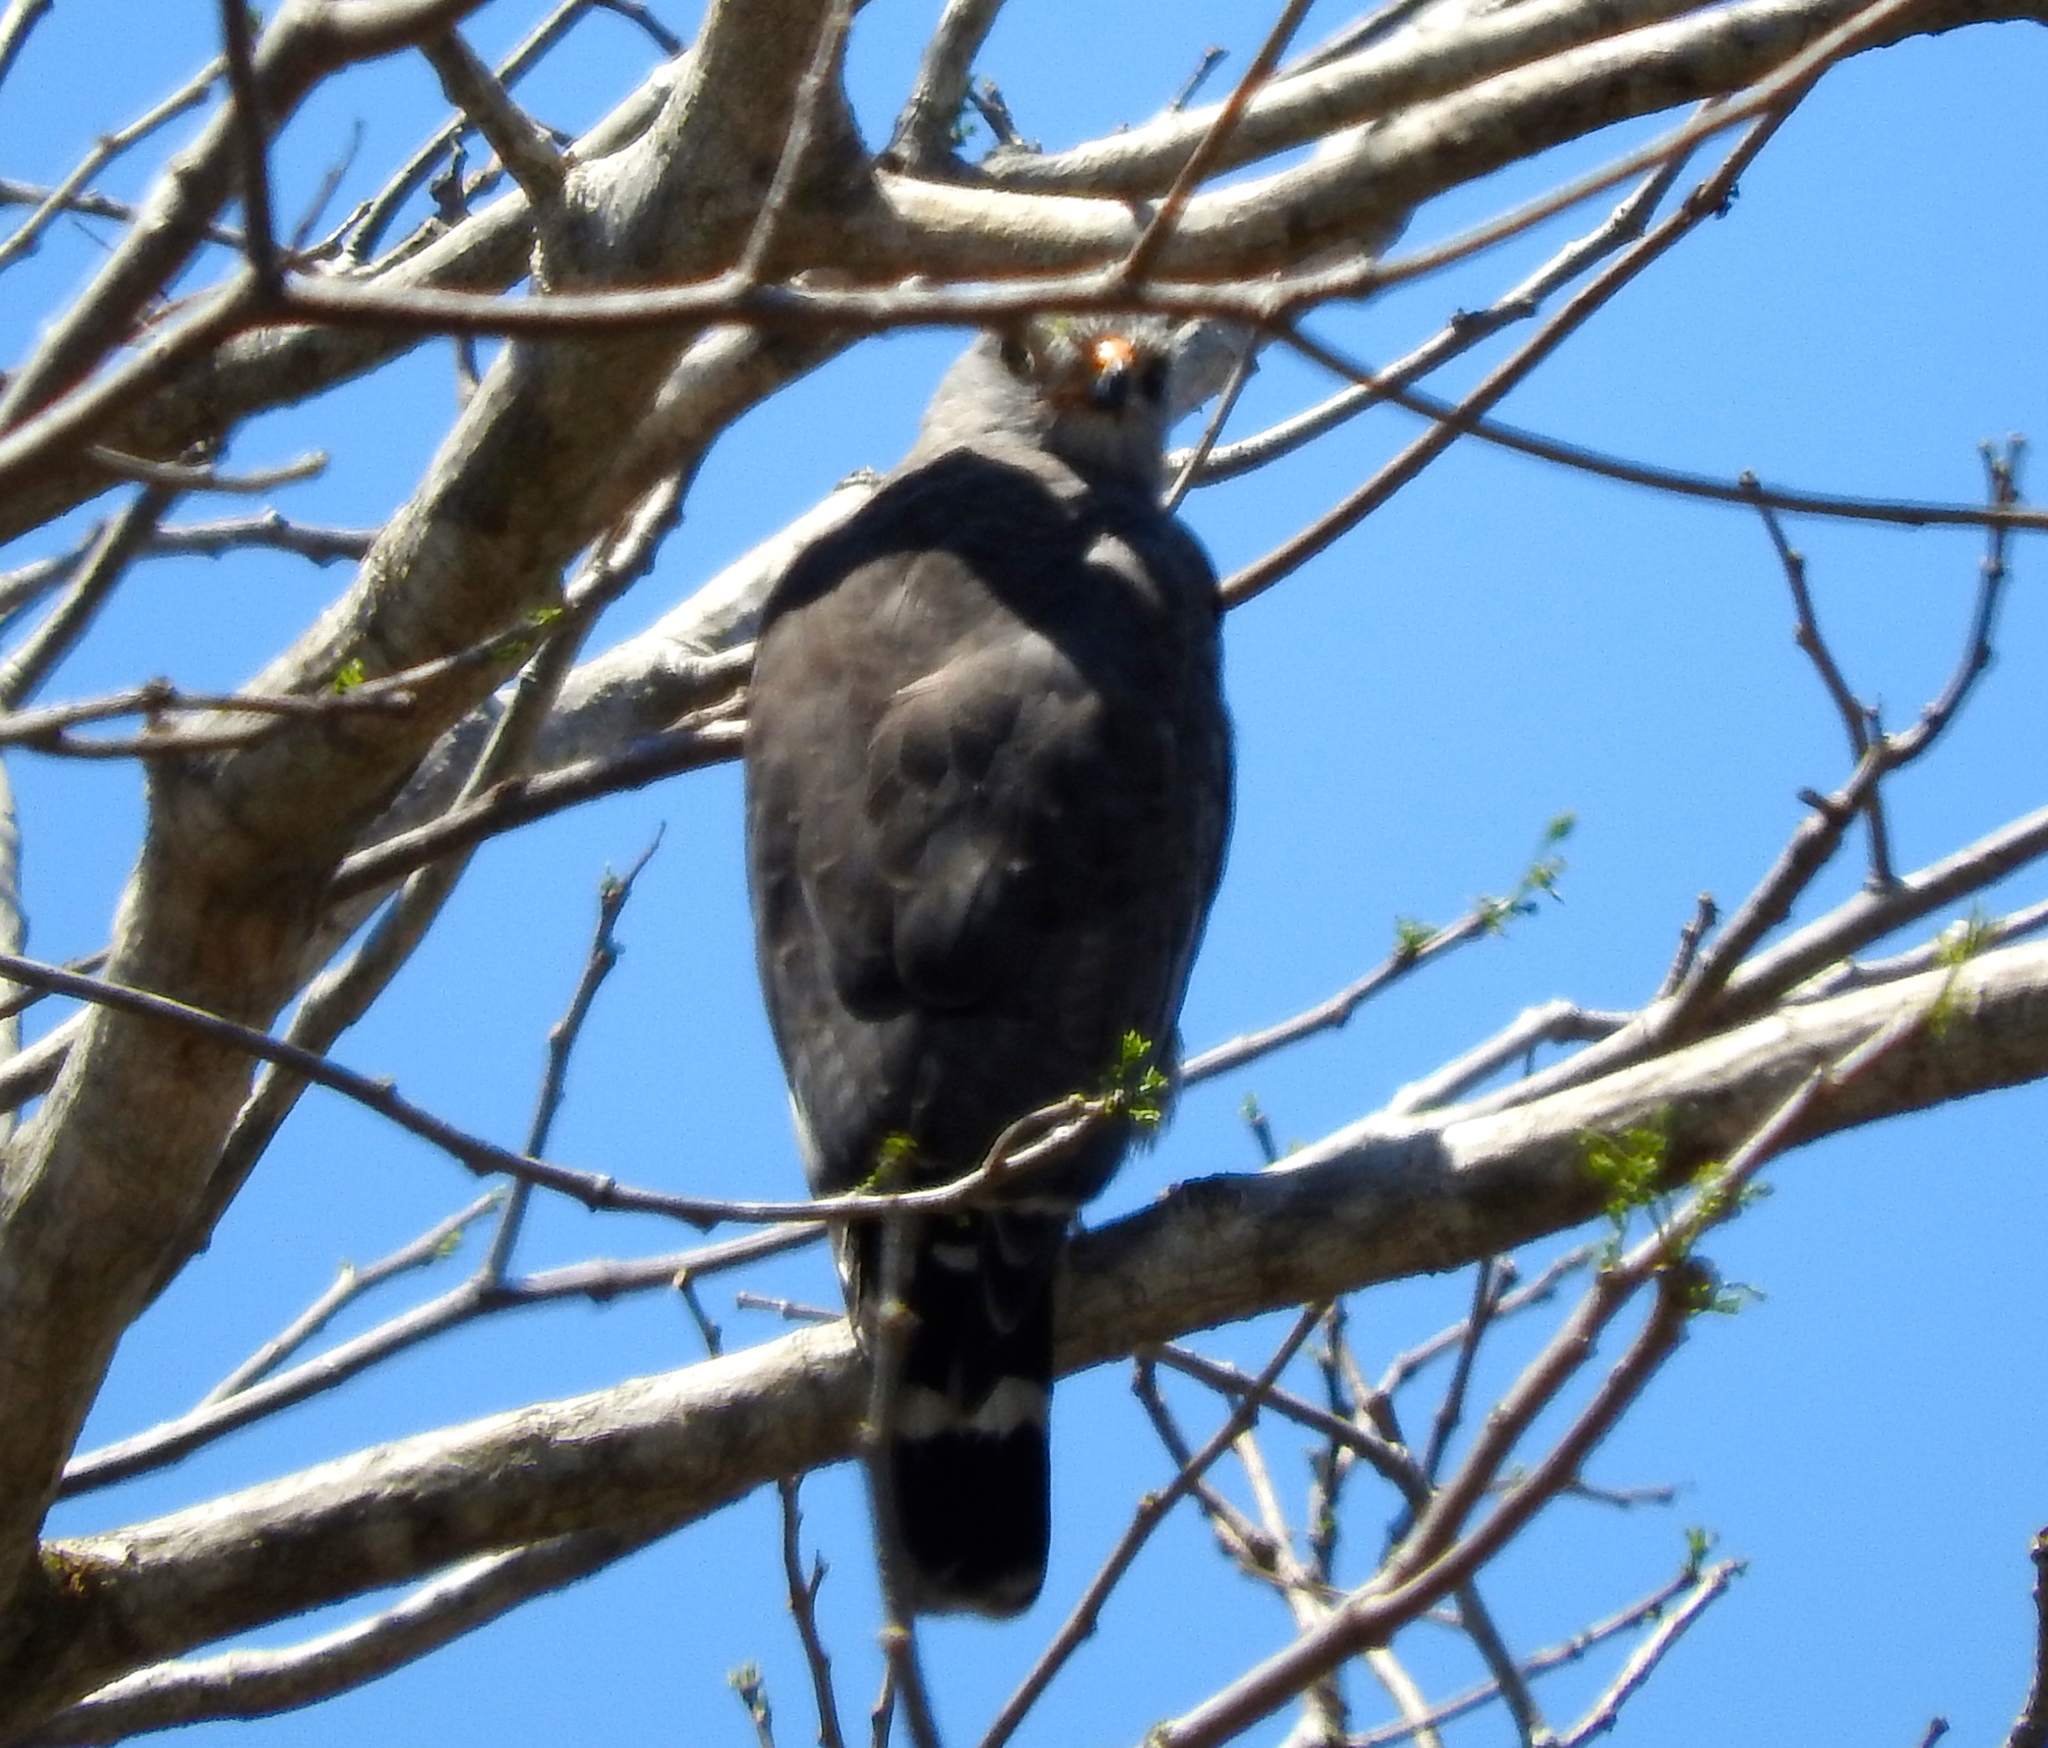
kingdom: Animalia
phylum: Chordata
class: Aves
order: Accipitriformes
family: Accipitridae
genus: Buteo
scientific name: Buteo nitidus
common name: Grey-lined hawk
